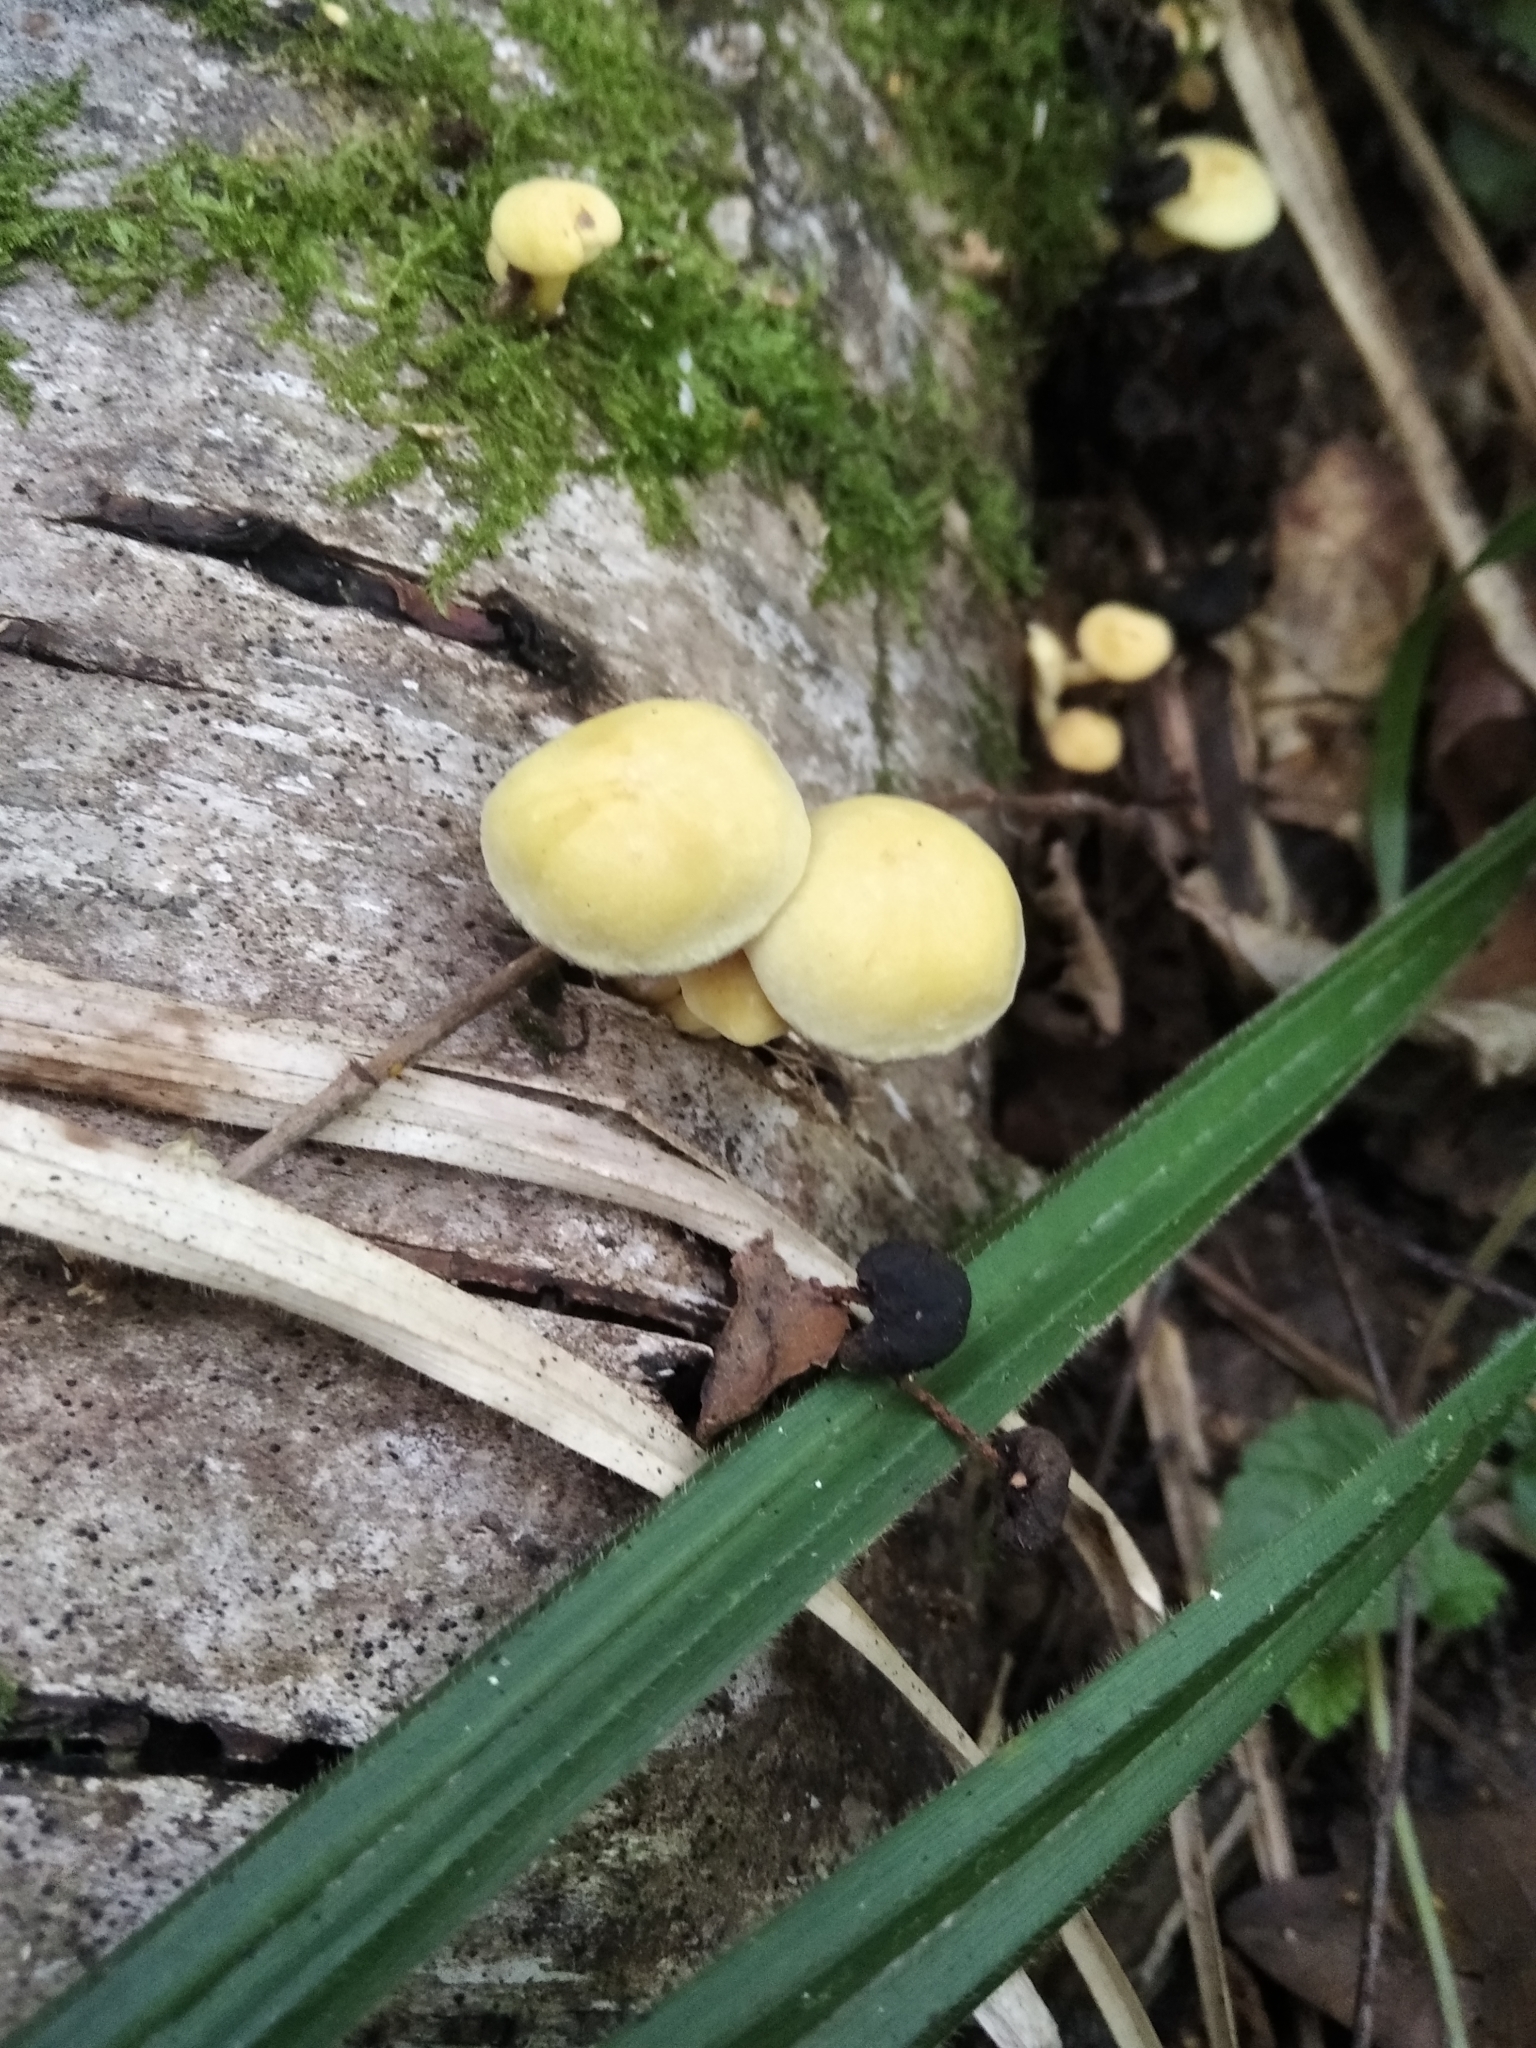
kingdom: Fungi
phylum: Basidiomycota
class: Agaricomycetes
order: Agaricales
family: Strophariaceae
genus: Hypholoma
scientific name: Hypholoma fasciculare
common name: Sulphur tuft
